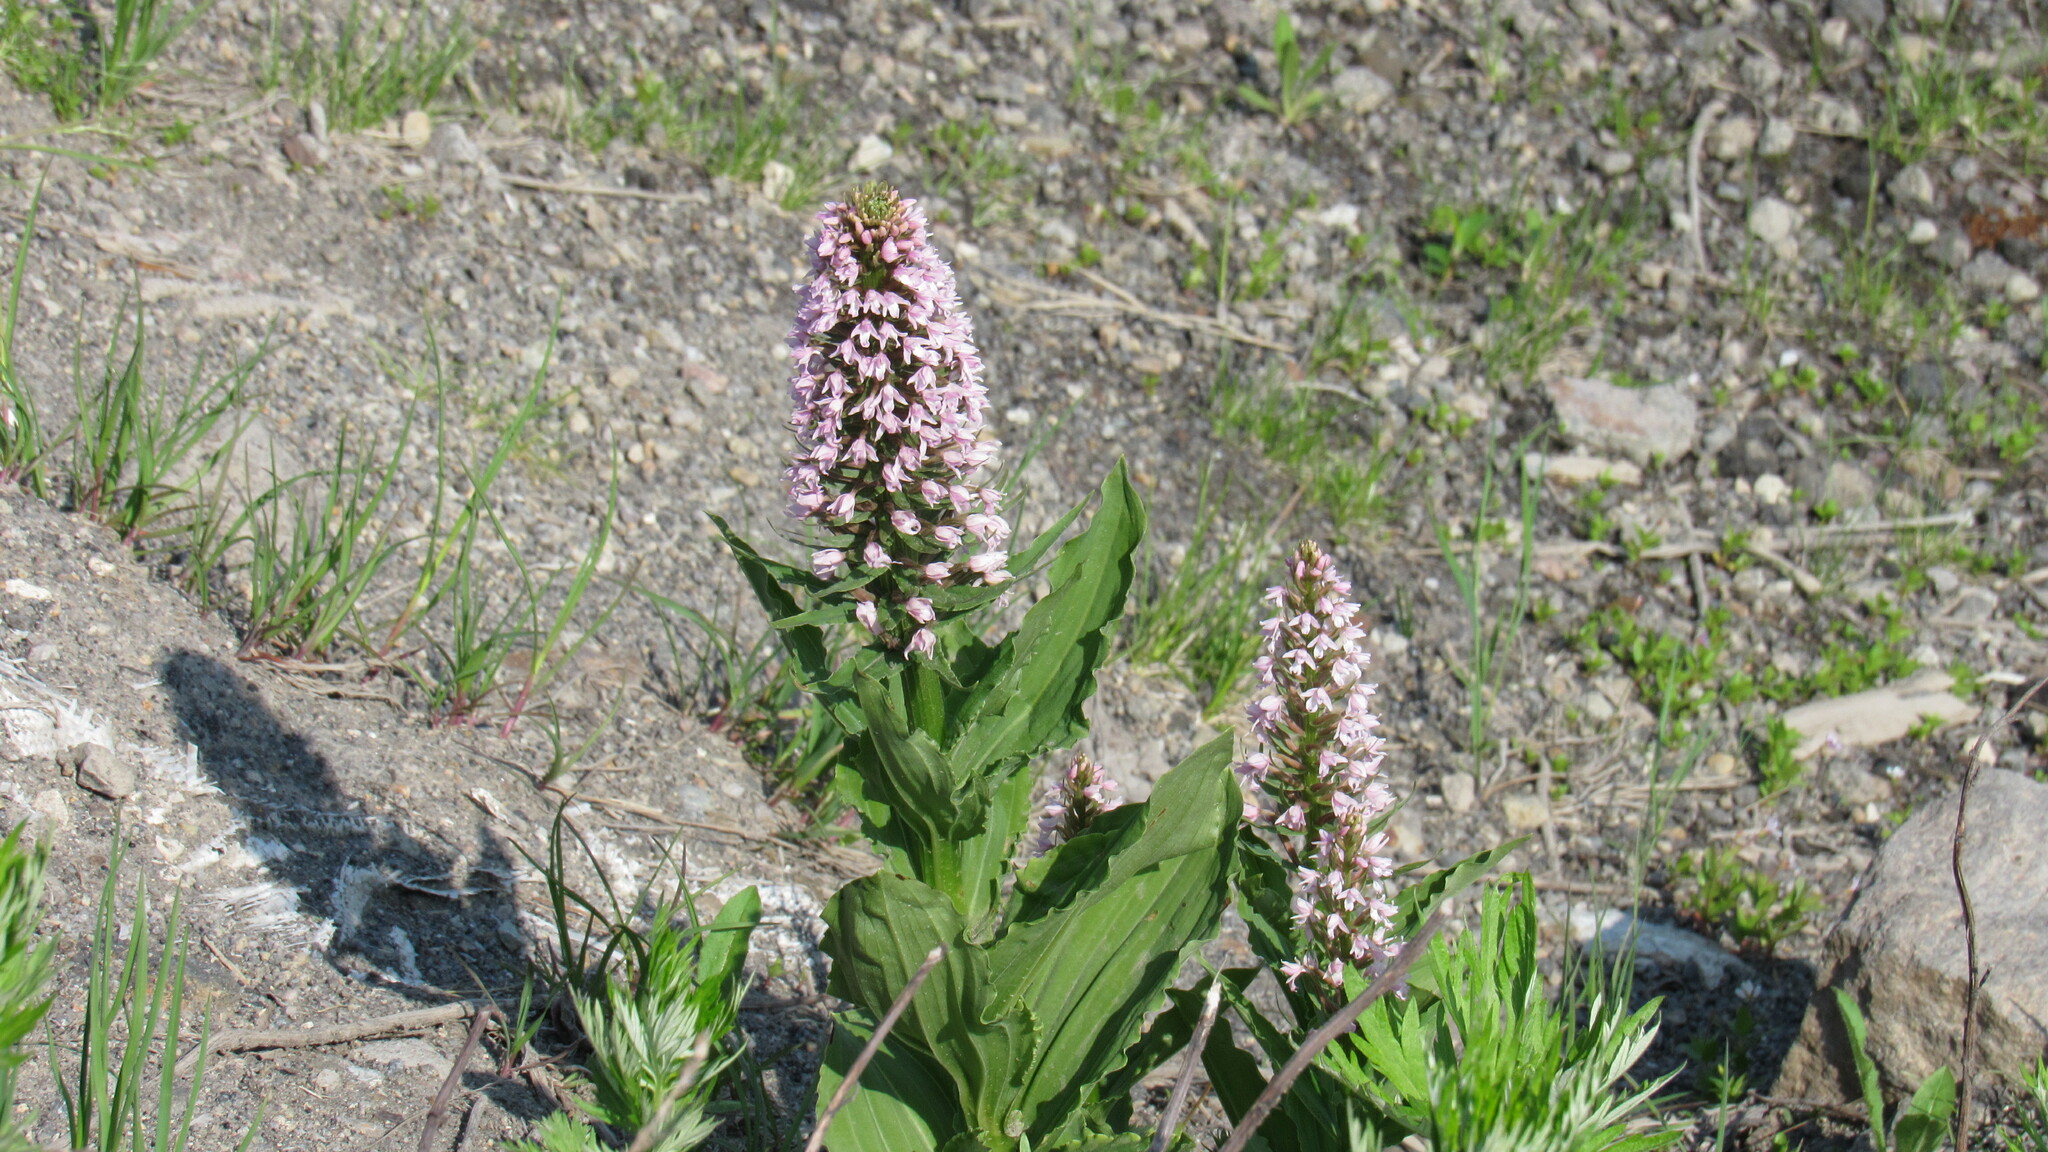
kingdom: Plantae
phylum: Tracheophyta
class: Liliopsida
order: Asparagales
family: Orchidaceae
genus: Galearis
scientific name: Galearis camtschatica
